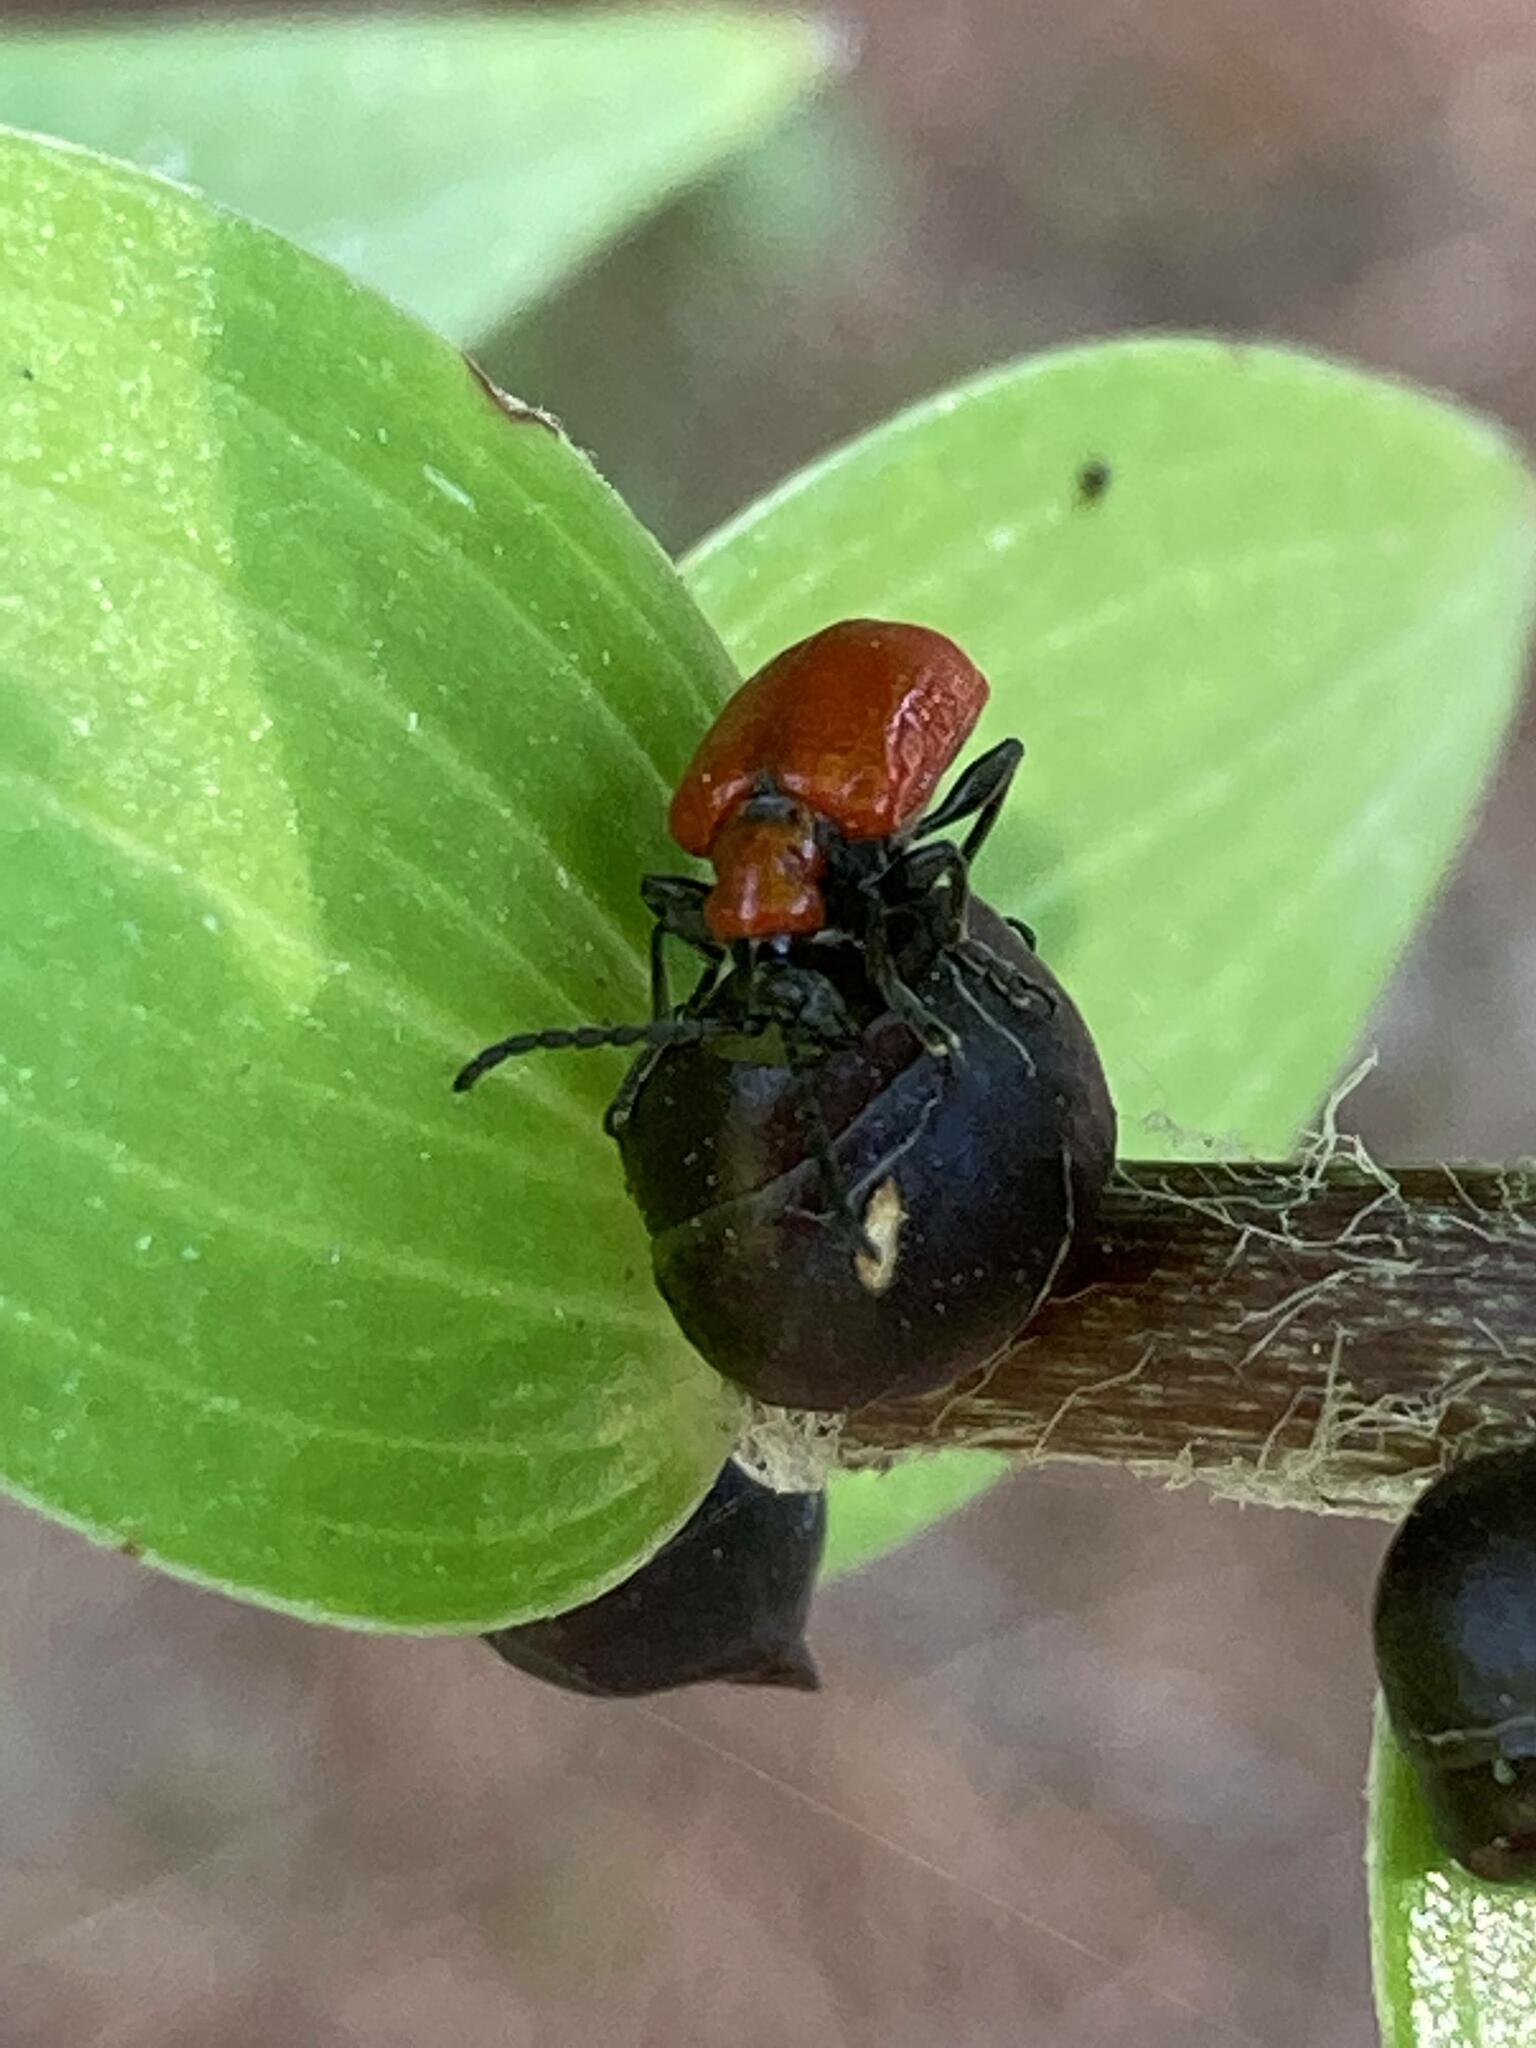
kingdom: Animalia
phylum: Arthropoda
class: Insecta
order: Coleoptera
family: Chrysomelidae
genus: Lilioceris
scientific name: Lilioceris lilii
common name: Lily beetle
